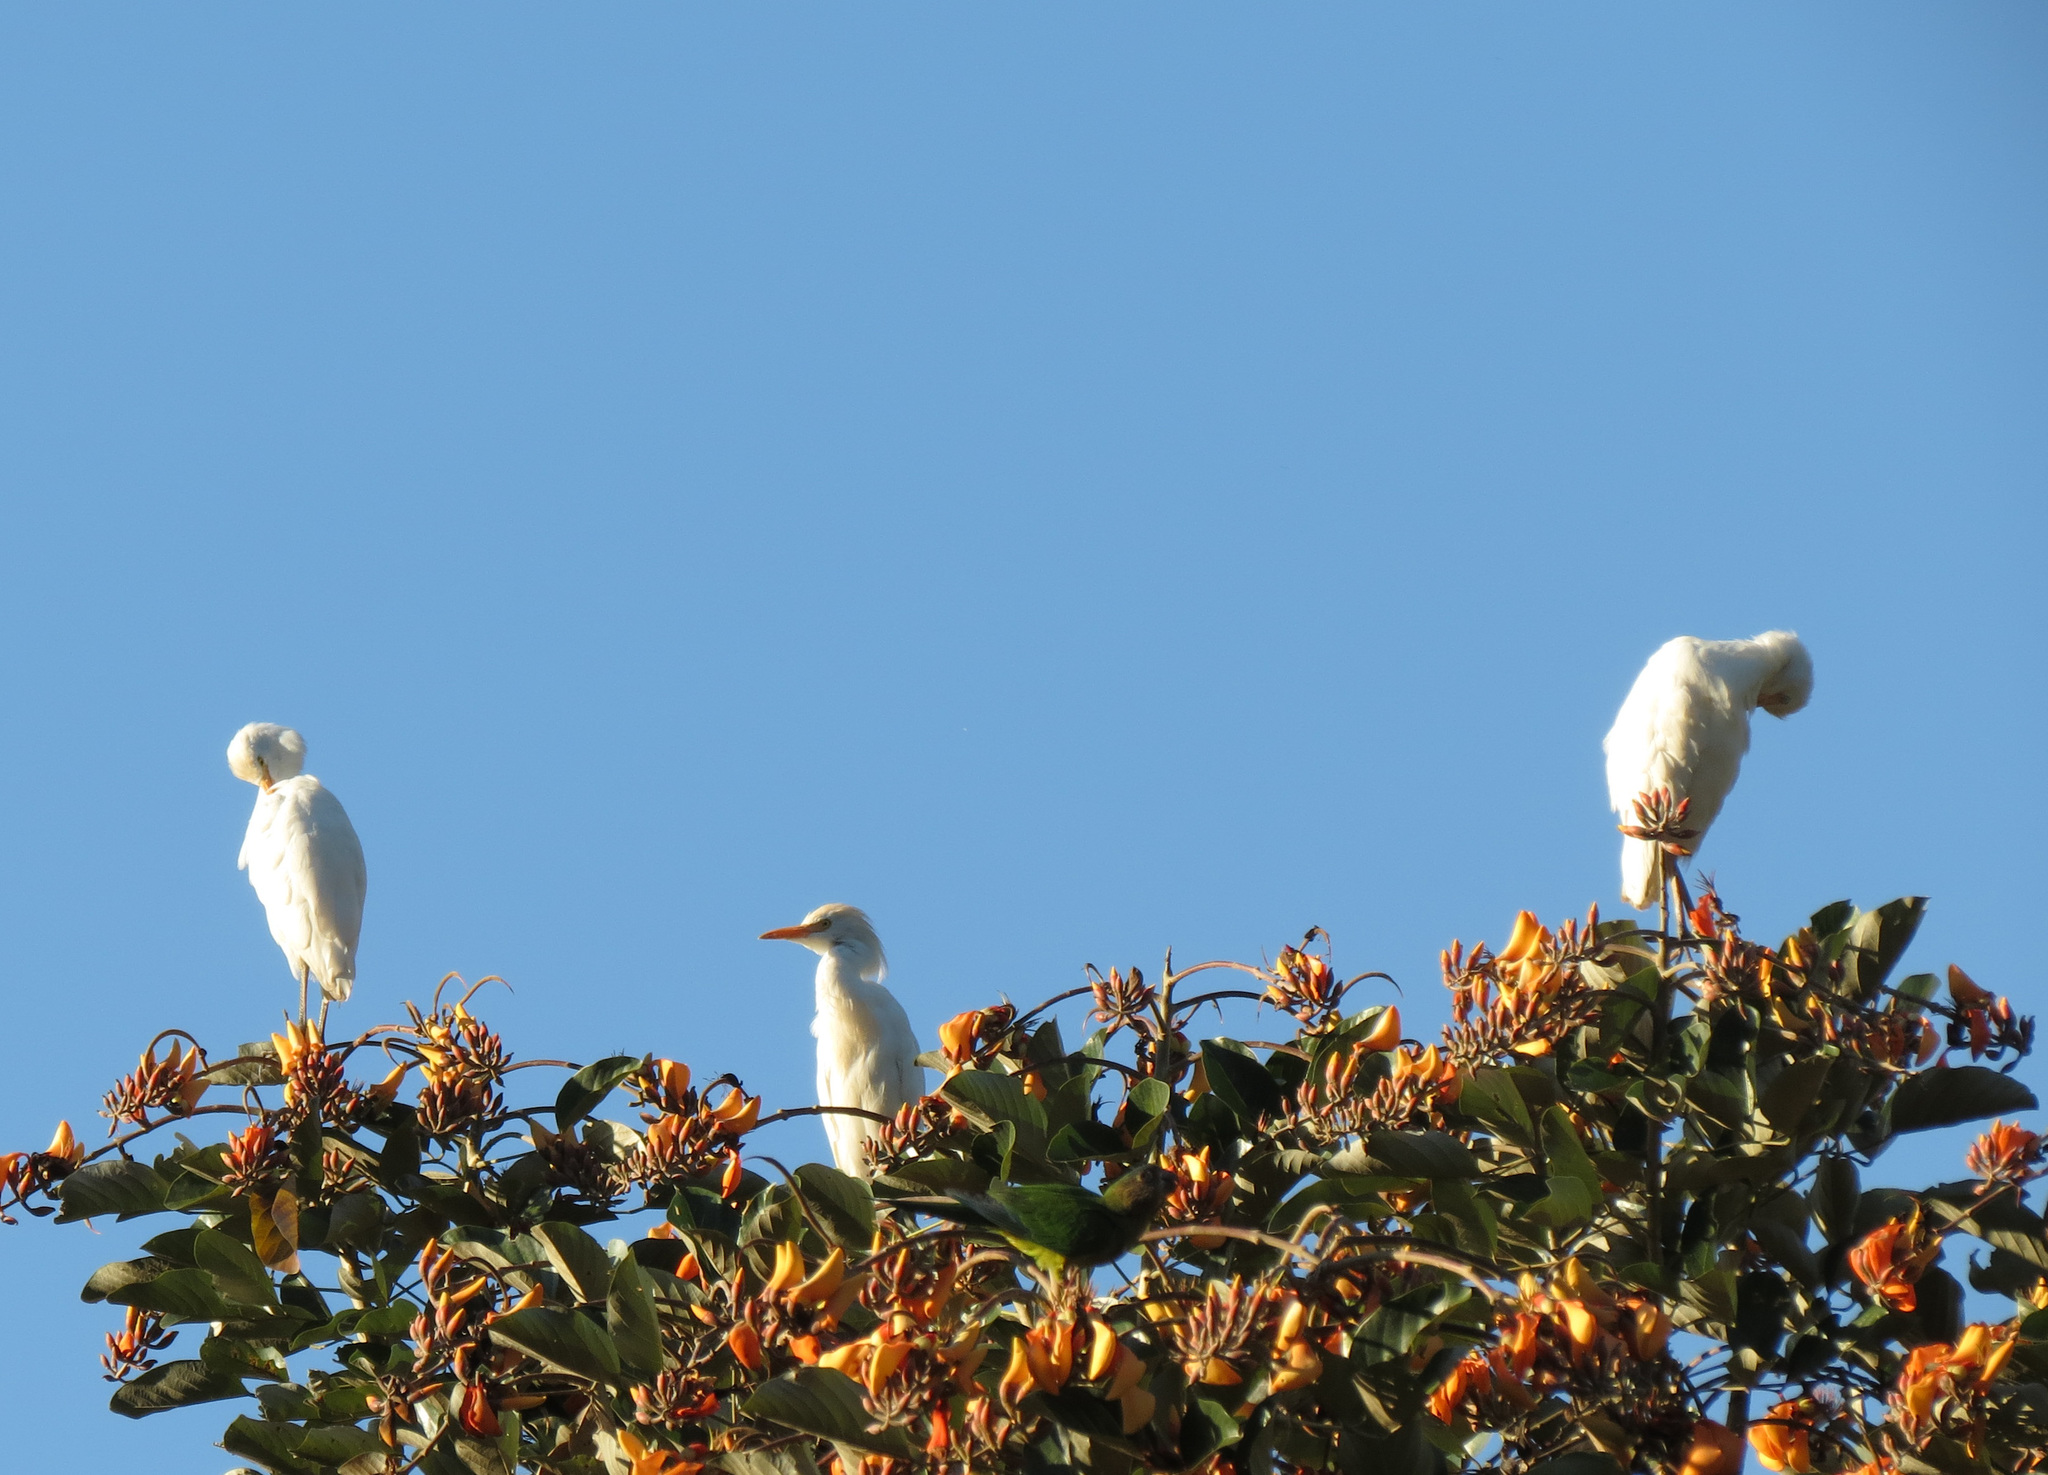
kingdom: Animalia
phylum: Chordata
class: Aves
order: Pelecaniformes
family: Ardeidae
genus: Bubulcus
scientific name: Bubulcus ibis
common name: Cattle egret
